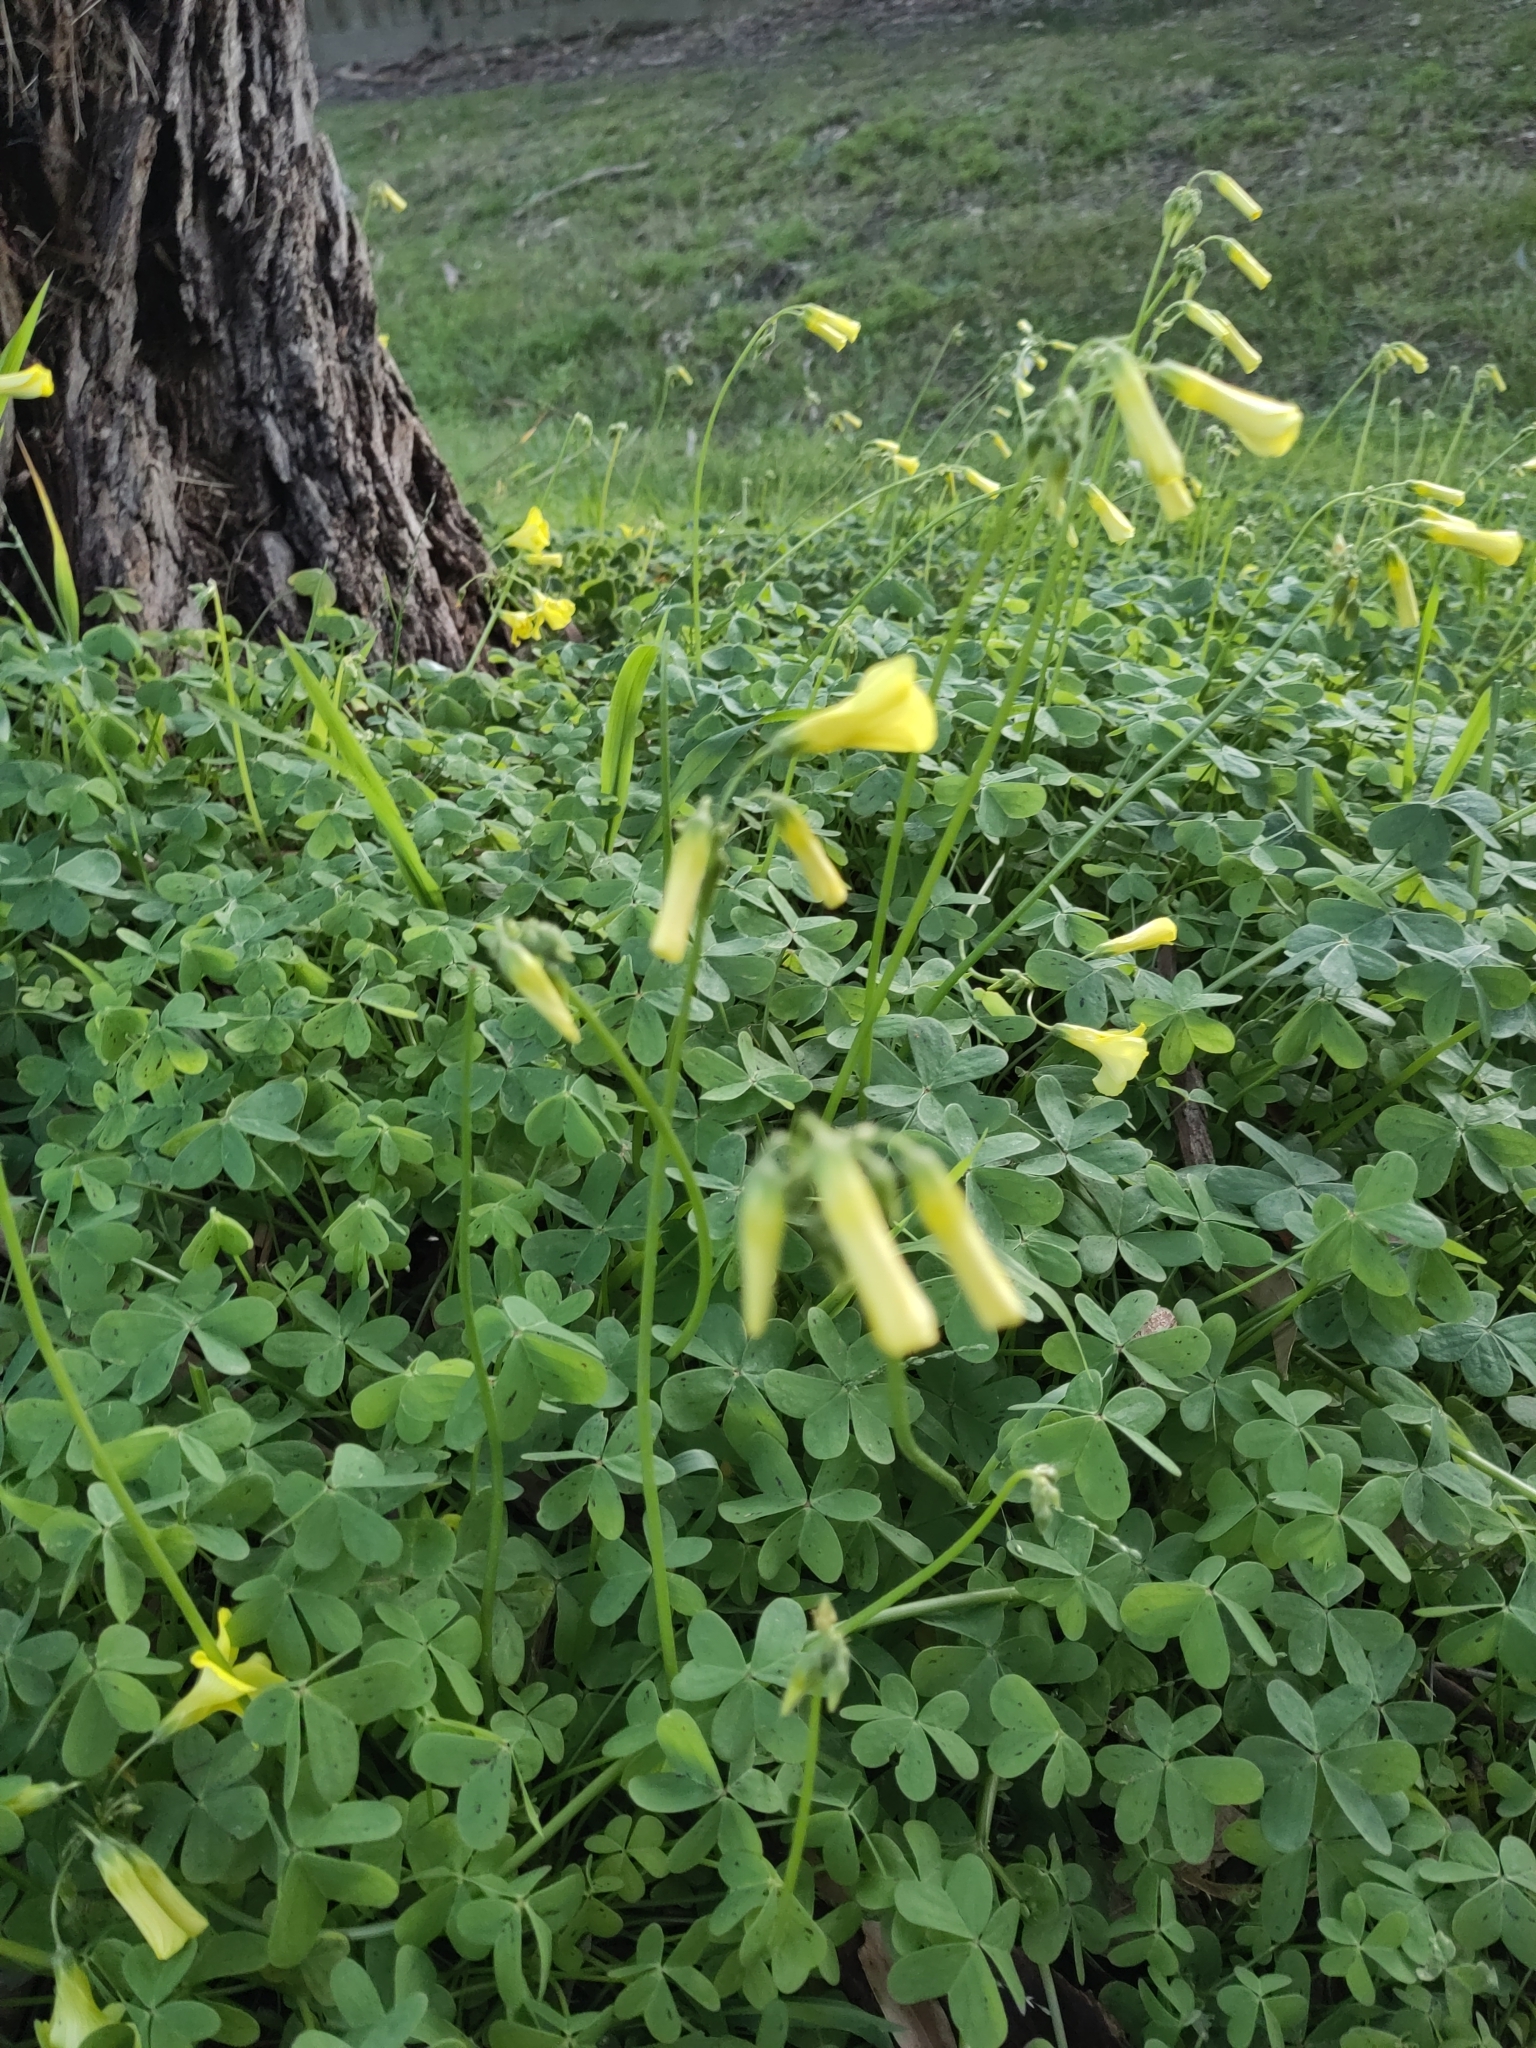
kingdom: Plantae
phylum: Tracheophyta
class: Magnoliopsida
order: Oxalidales
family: Oxalidaceae
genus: Oxalis
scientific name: Oxalis pes-caprae
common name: Bermuda-buttercup
